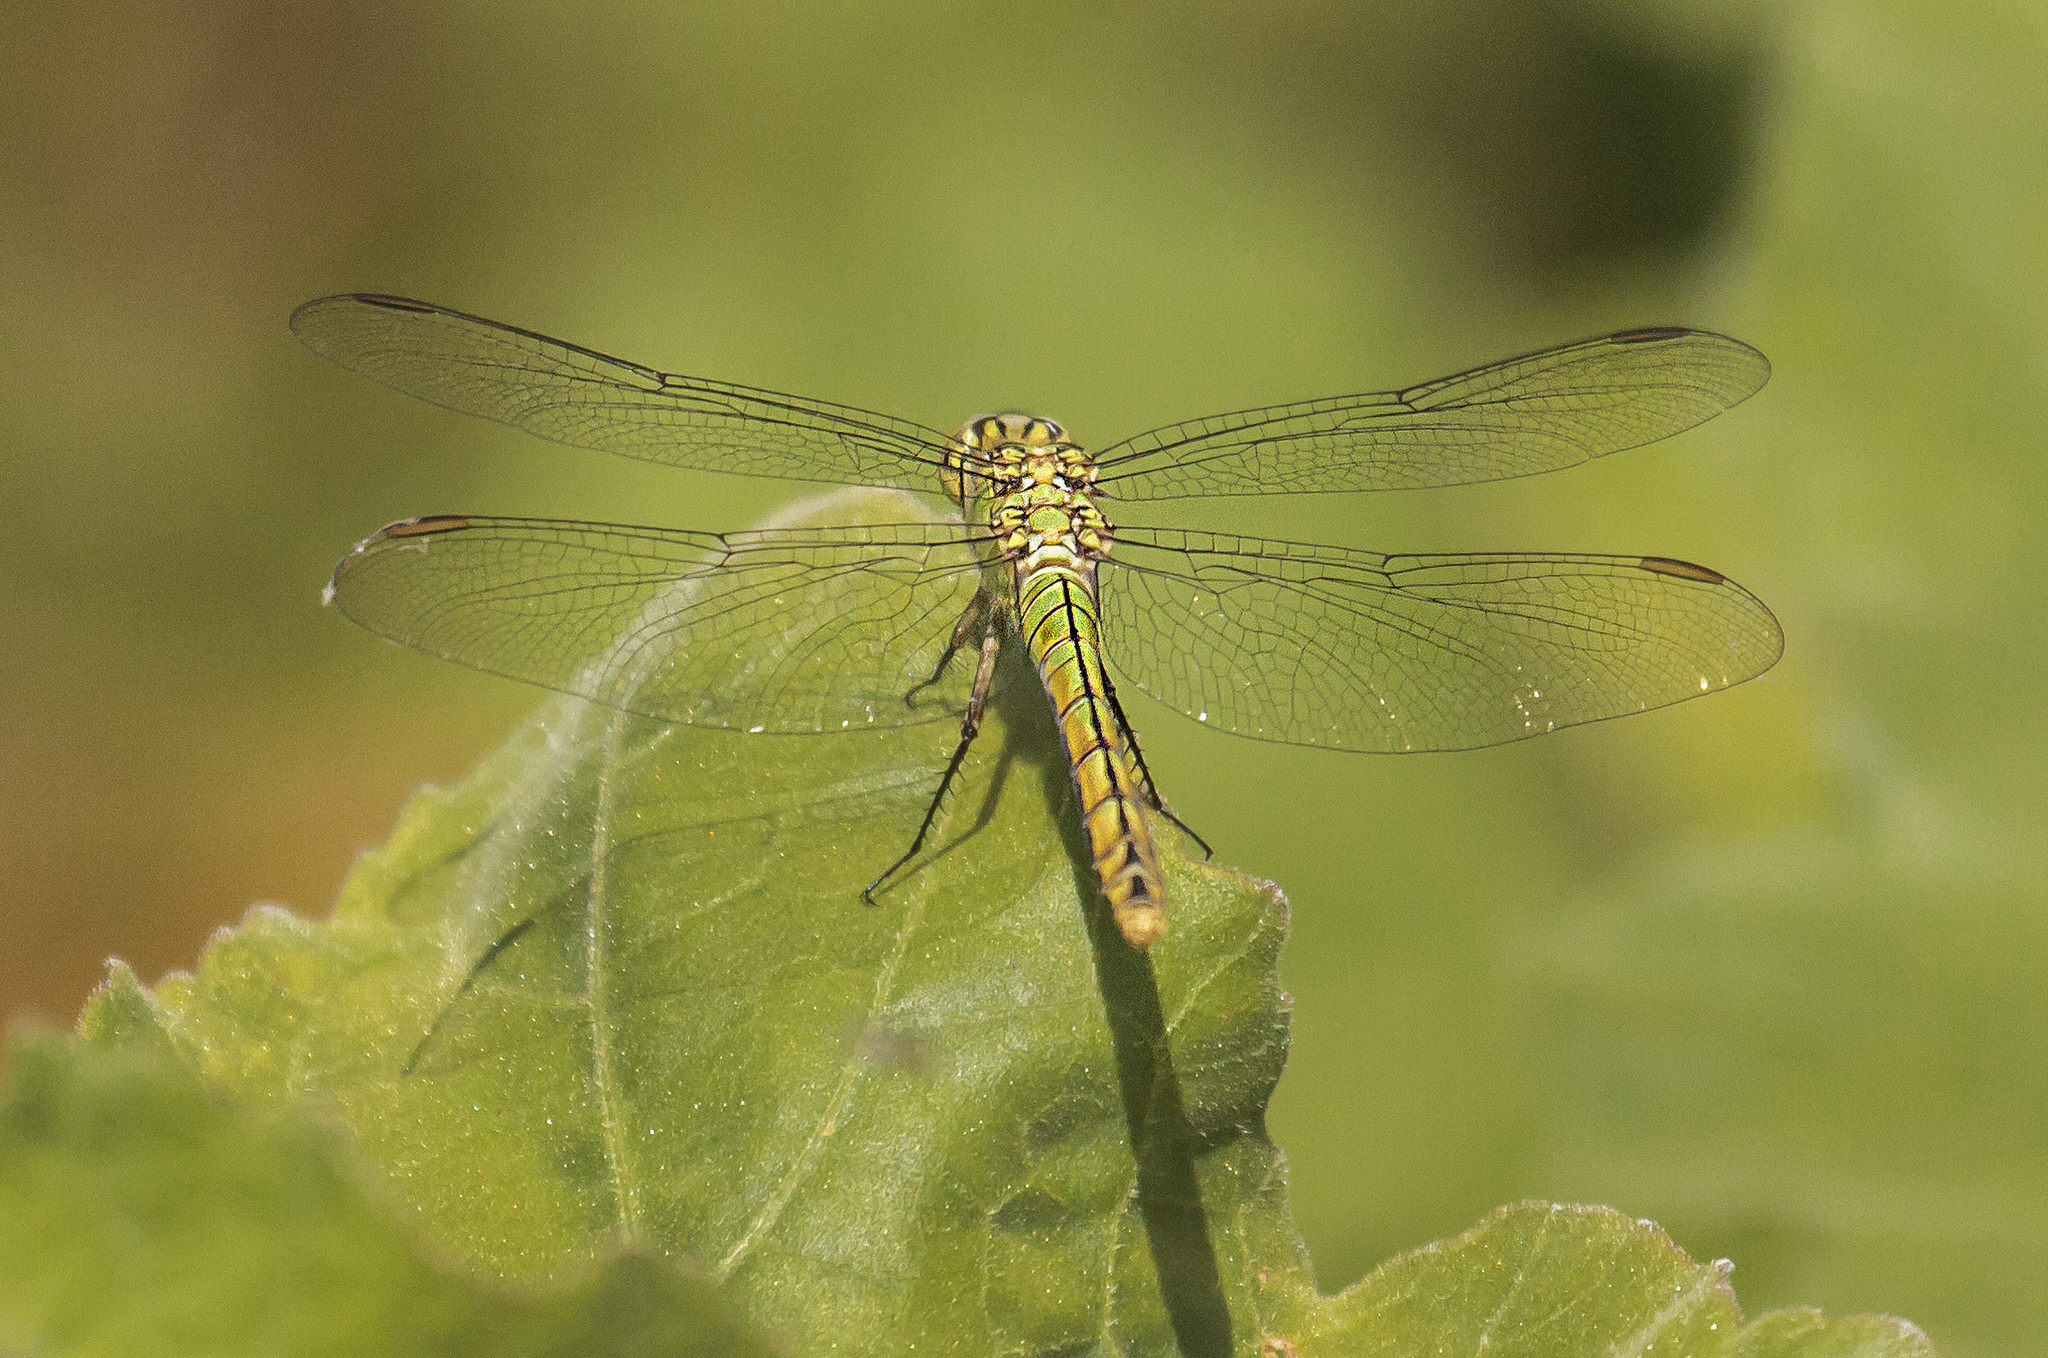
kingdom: Animalia
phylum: Arthropoda
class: Insecta
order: Odonata
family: Libellulidae
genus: Erythemis
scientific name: Erythemis collocata
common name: Western pondhawk
